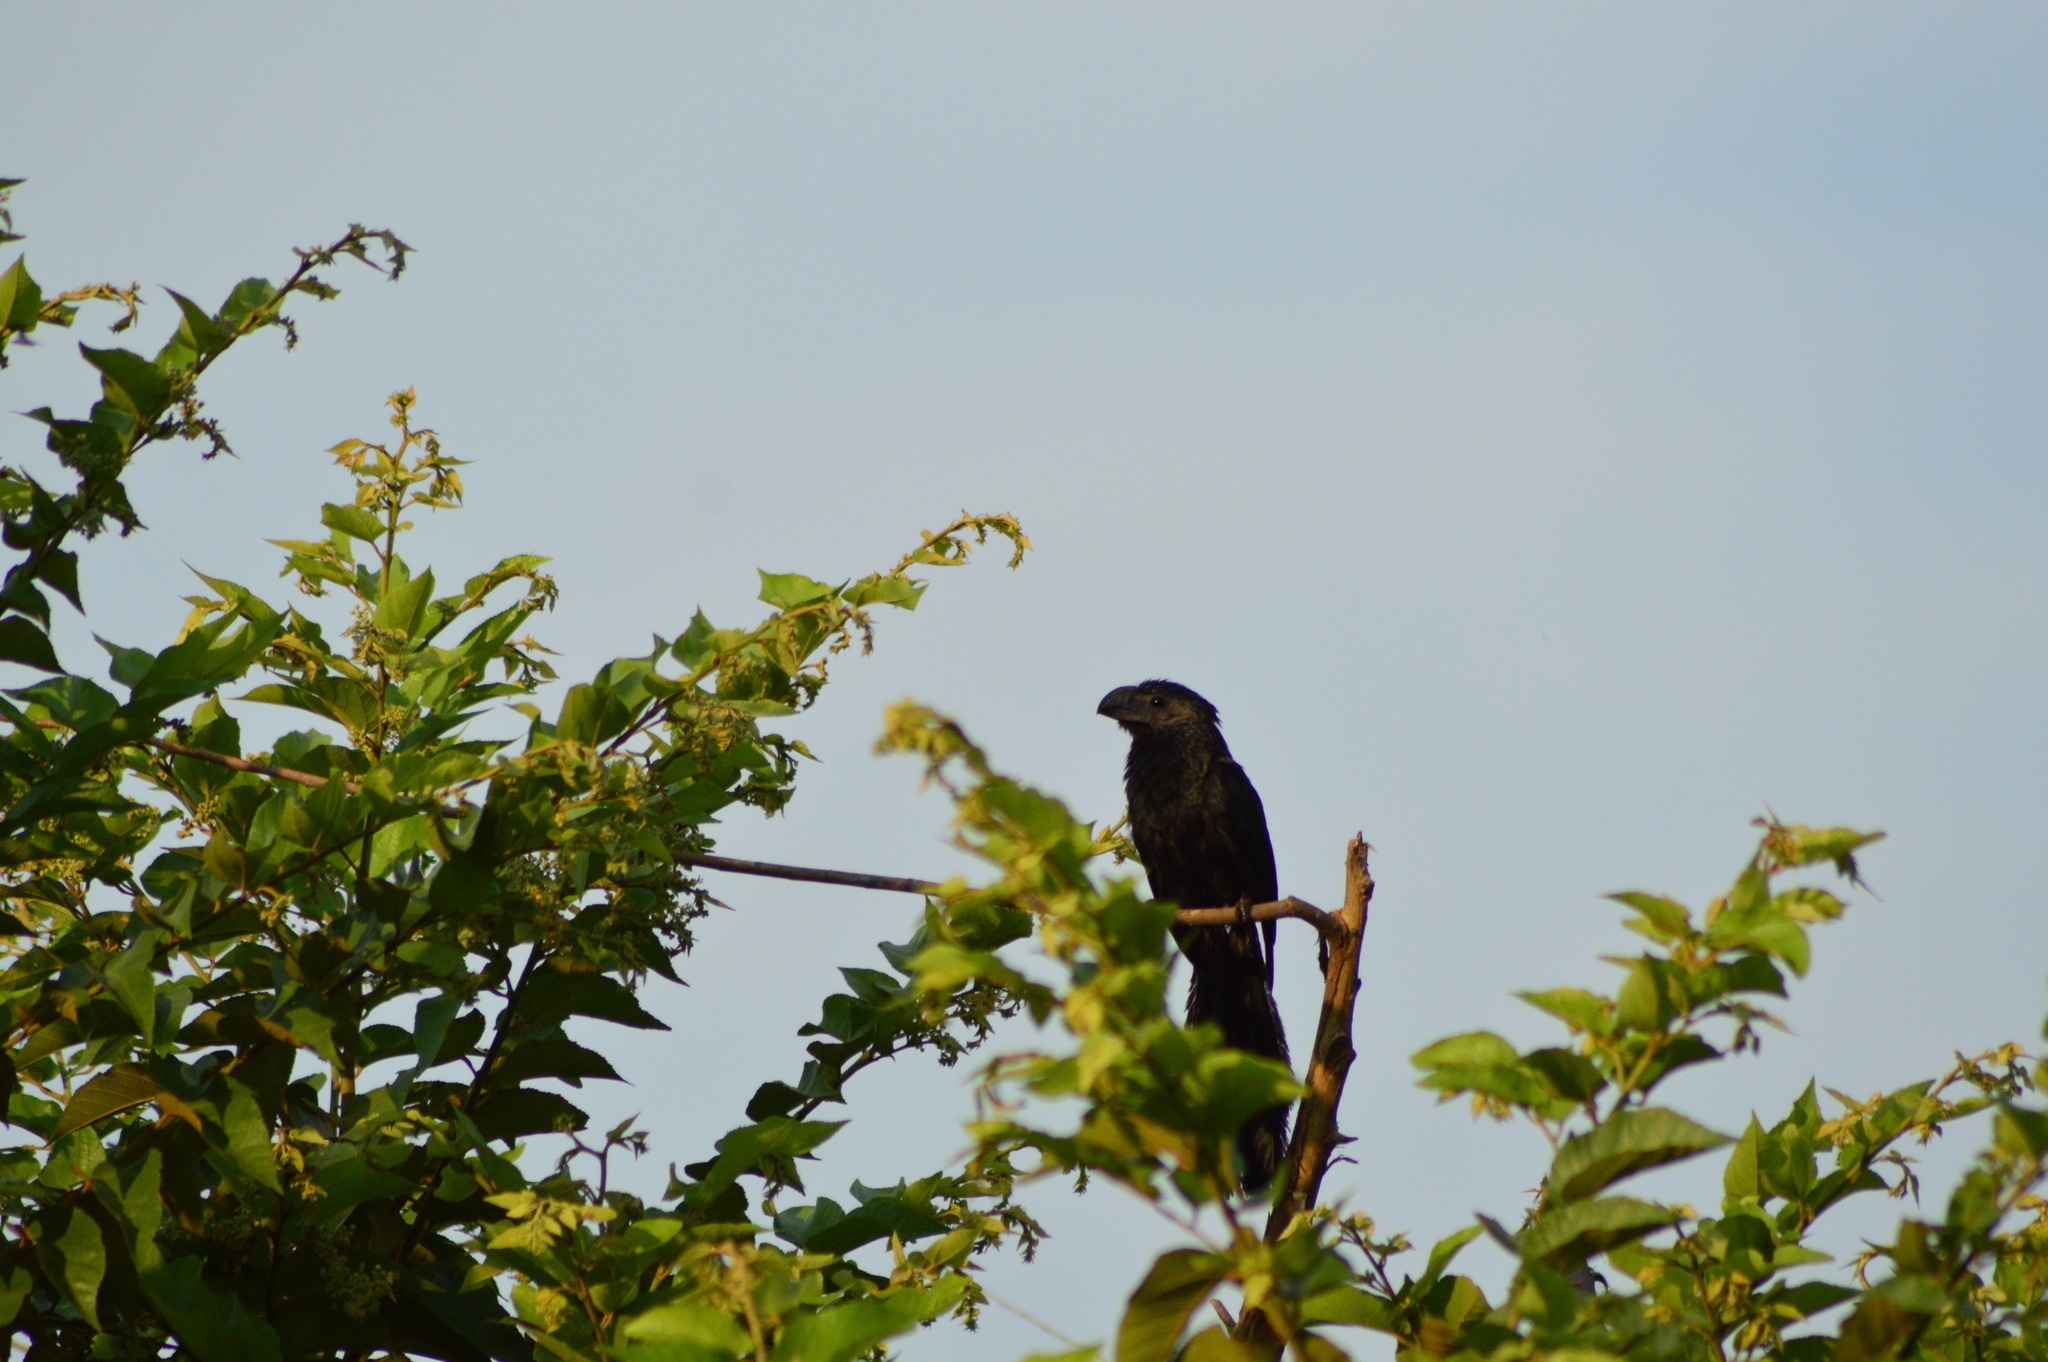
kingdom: Animalia
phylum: Chordata
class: Aves
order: Cuculiformes
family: Cuculidae
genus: Crotophaga
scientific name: Crotophaga sulcirostris
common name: Groove-billed ani
